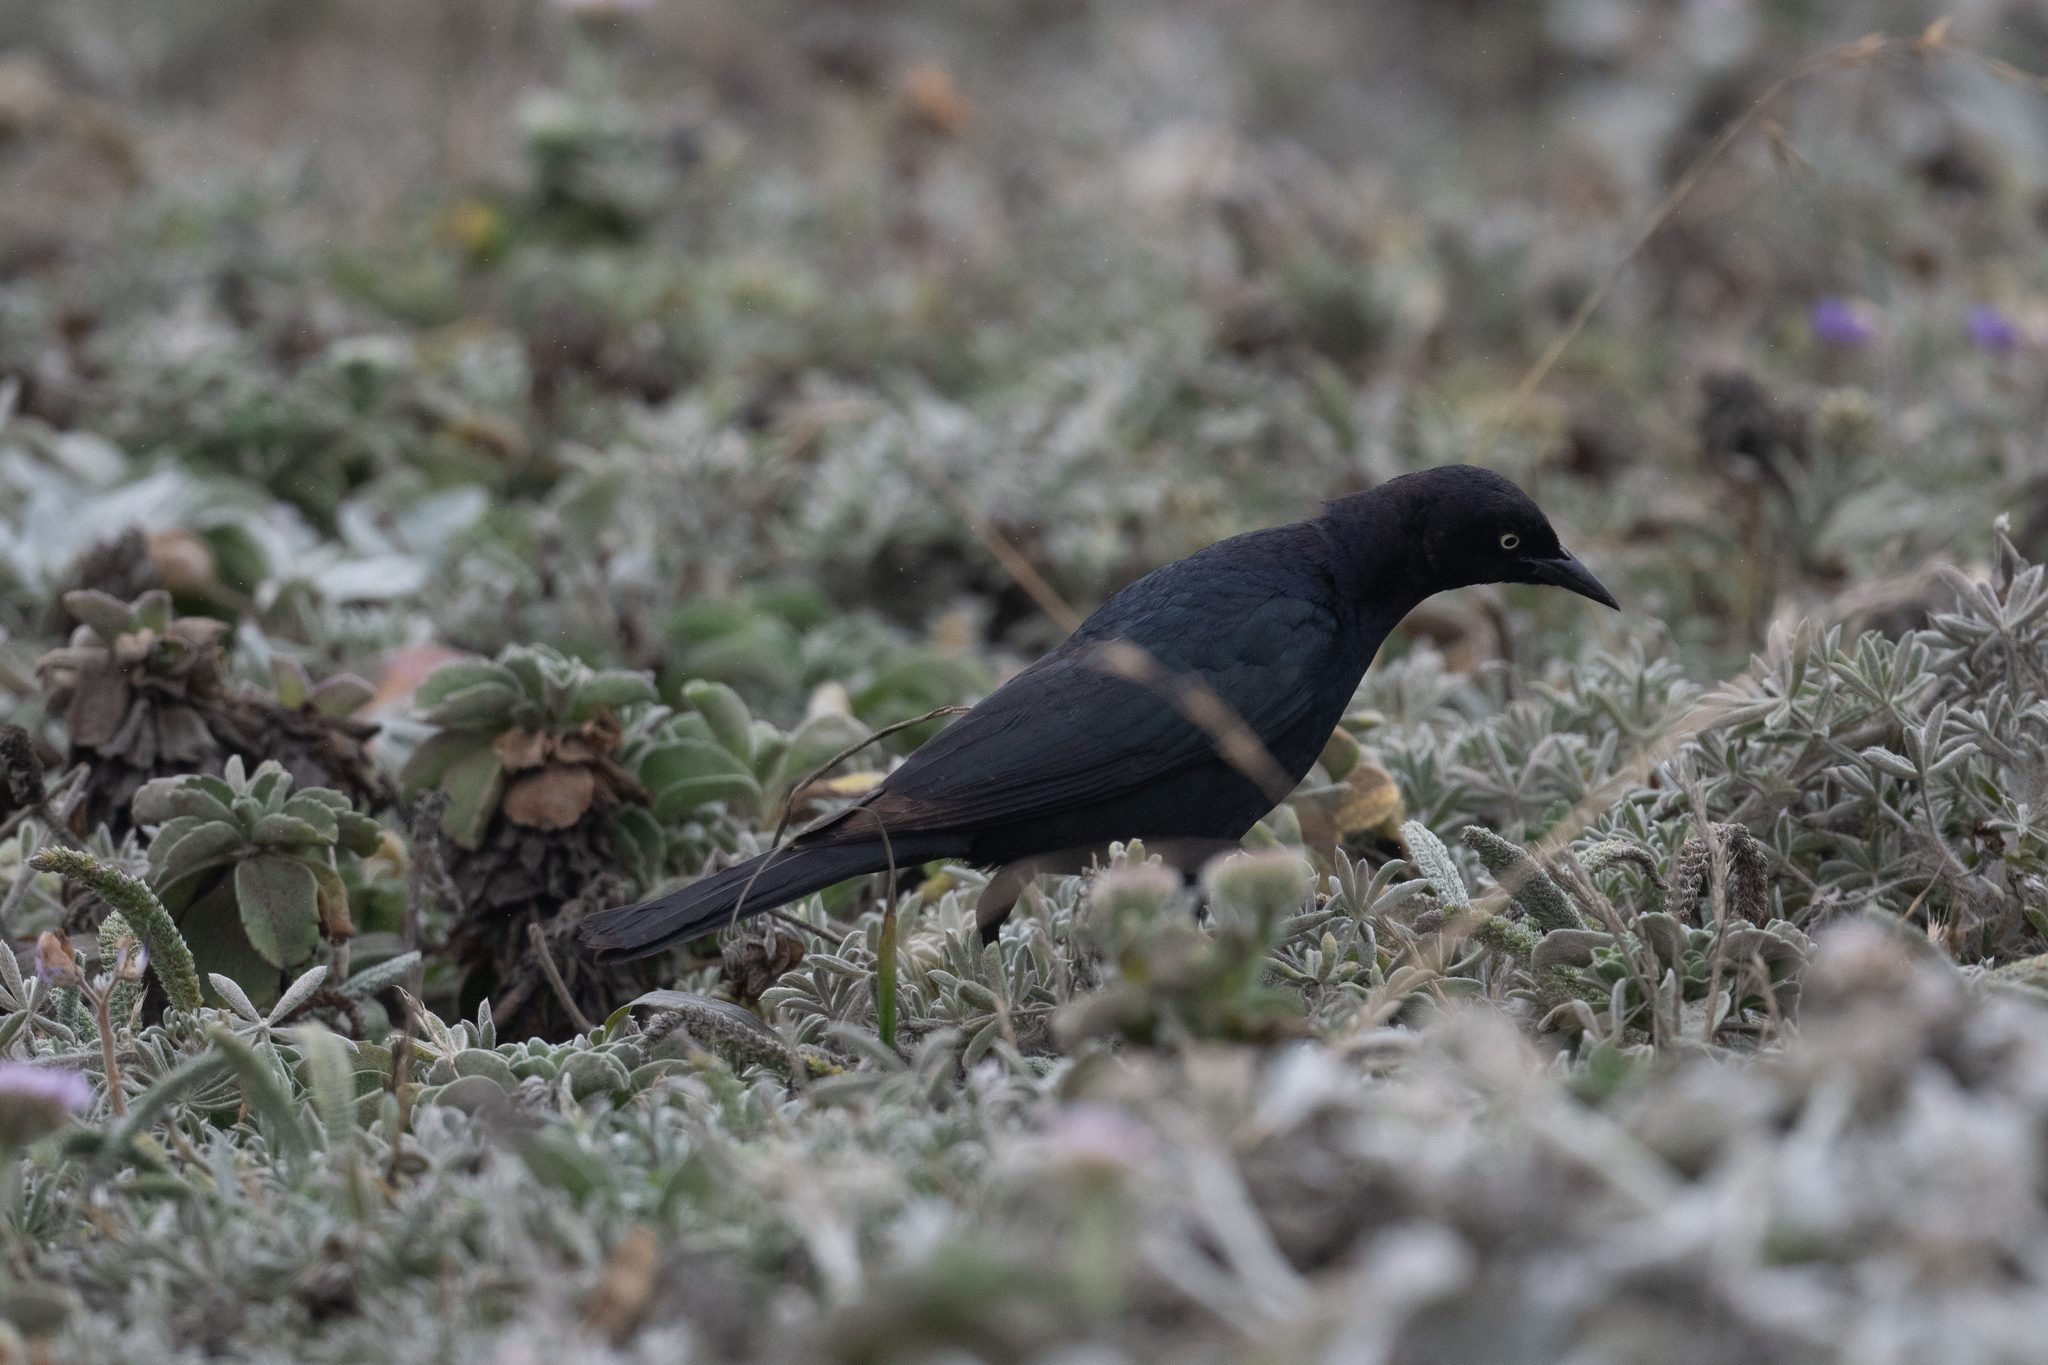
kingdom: Animalia
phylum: Chordata
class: Aves
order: Passeriformes
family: Icteridae
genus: Euphagus
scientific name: Euphagus cyanocephalus
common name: Brewer's blackbird
